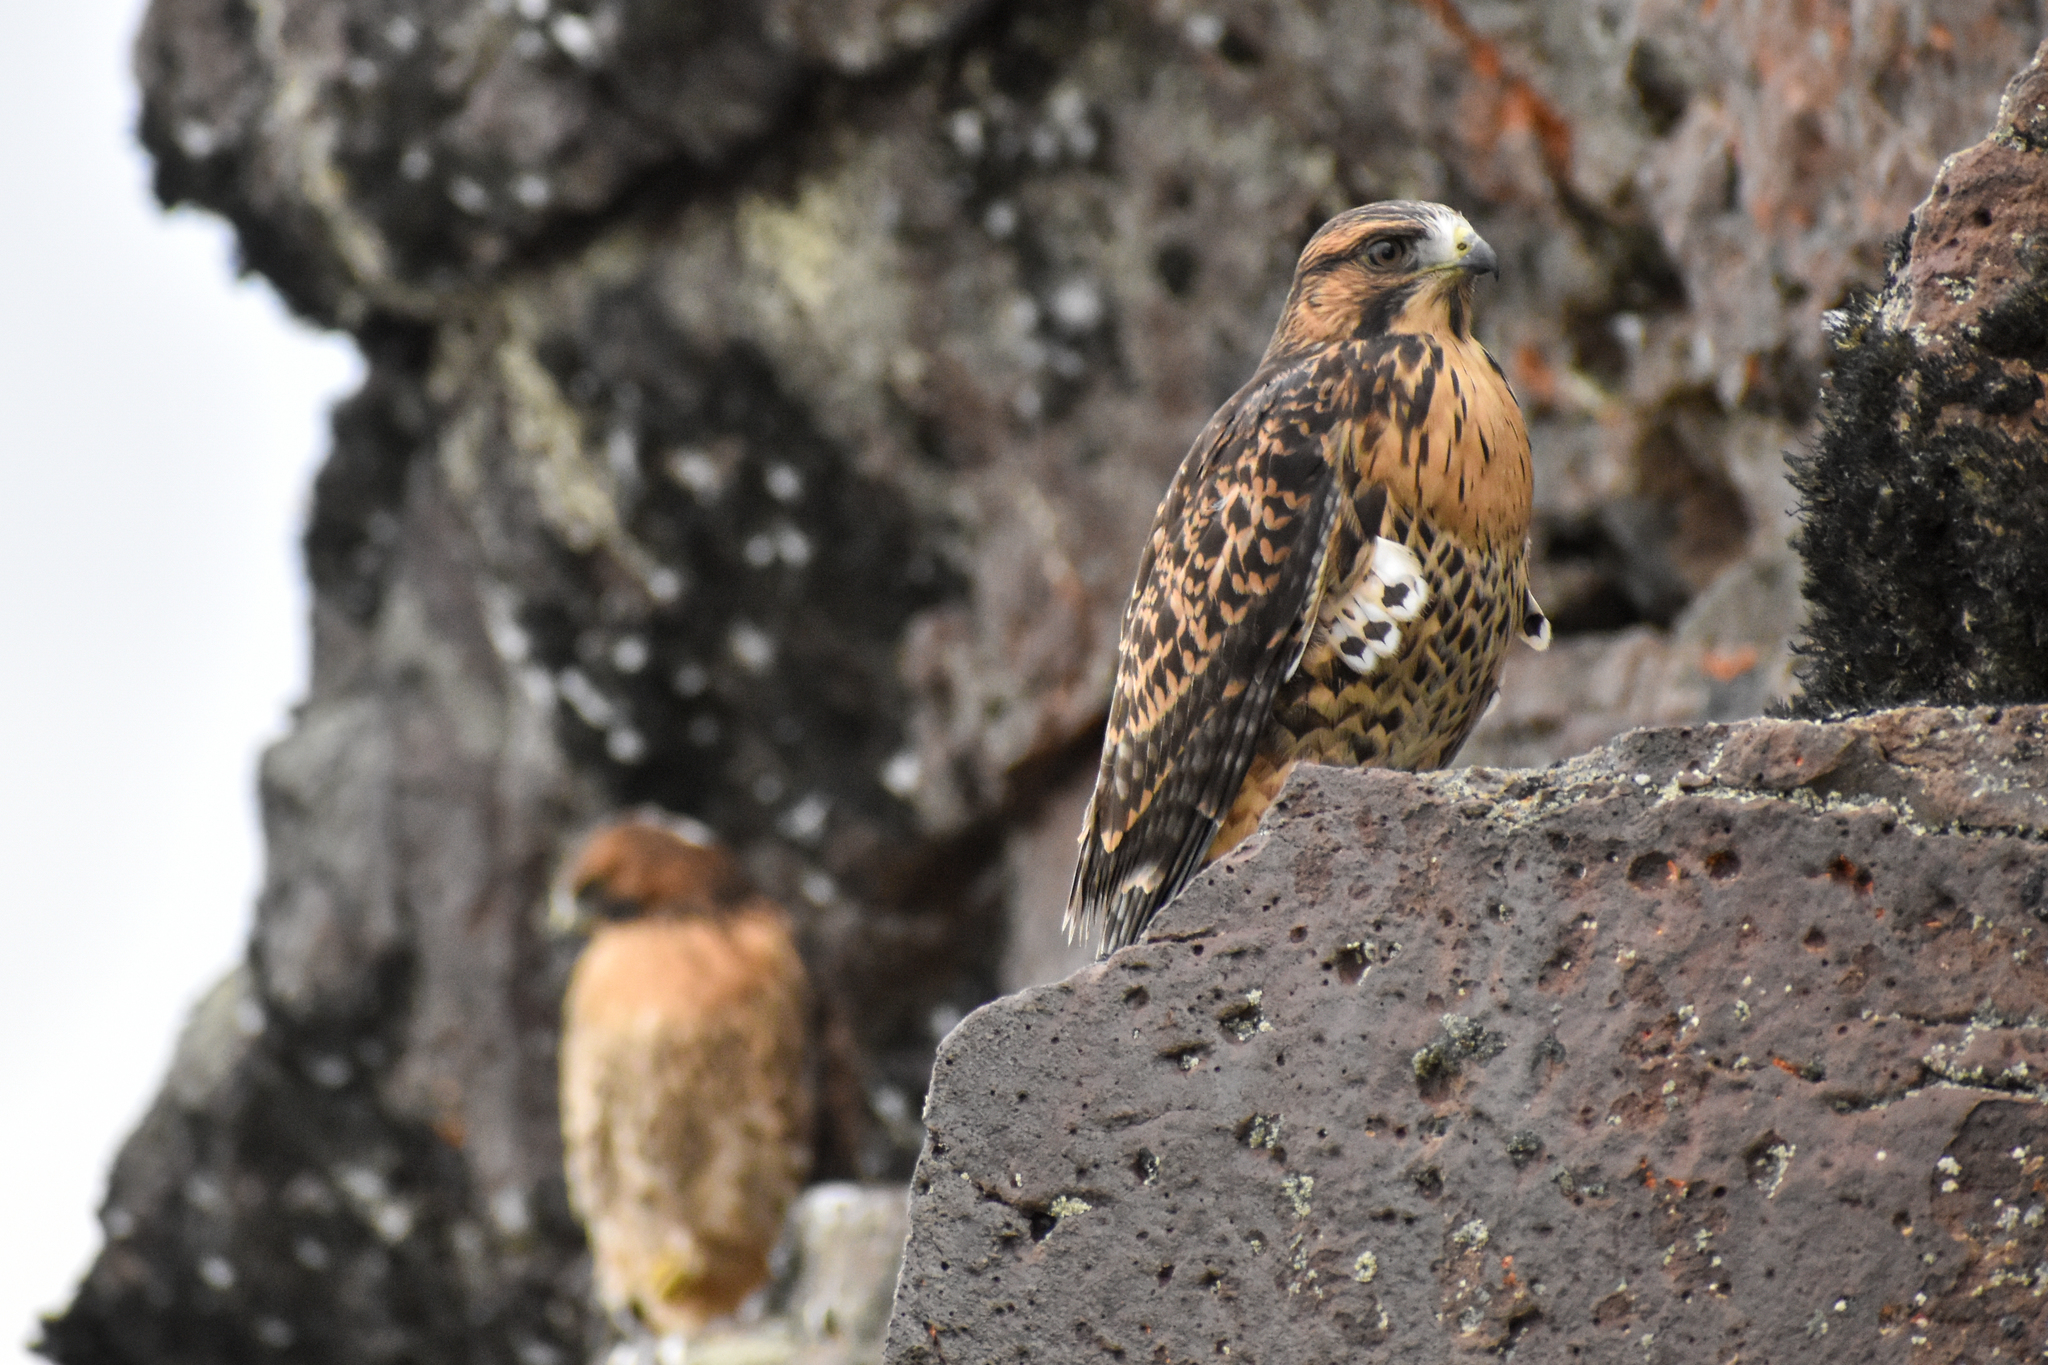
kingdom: Animalia
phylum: Chordata
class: Aves
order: Accipitriformes
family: Accipitridae
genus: Buteo
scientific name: Buteo polyosoma
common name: Variable hawk
